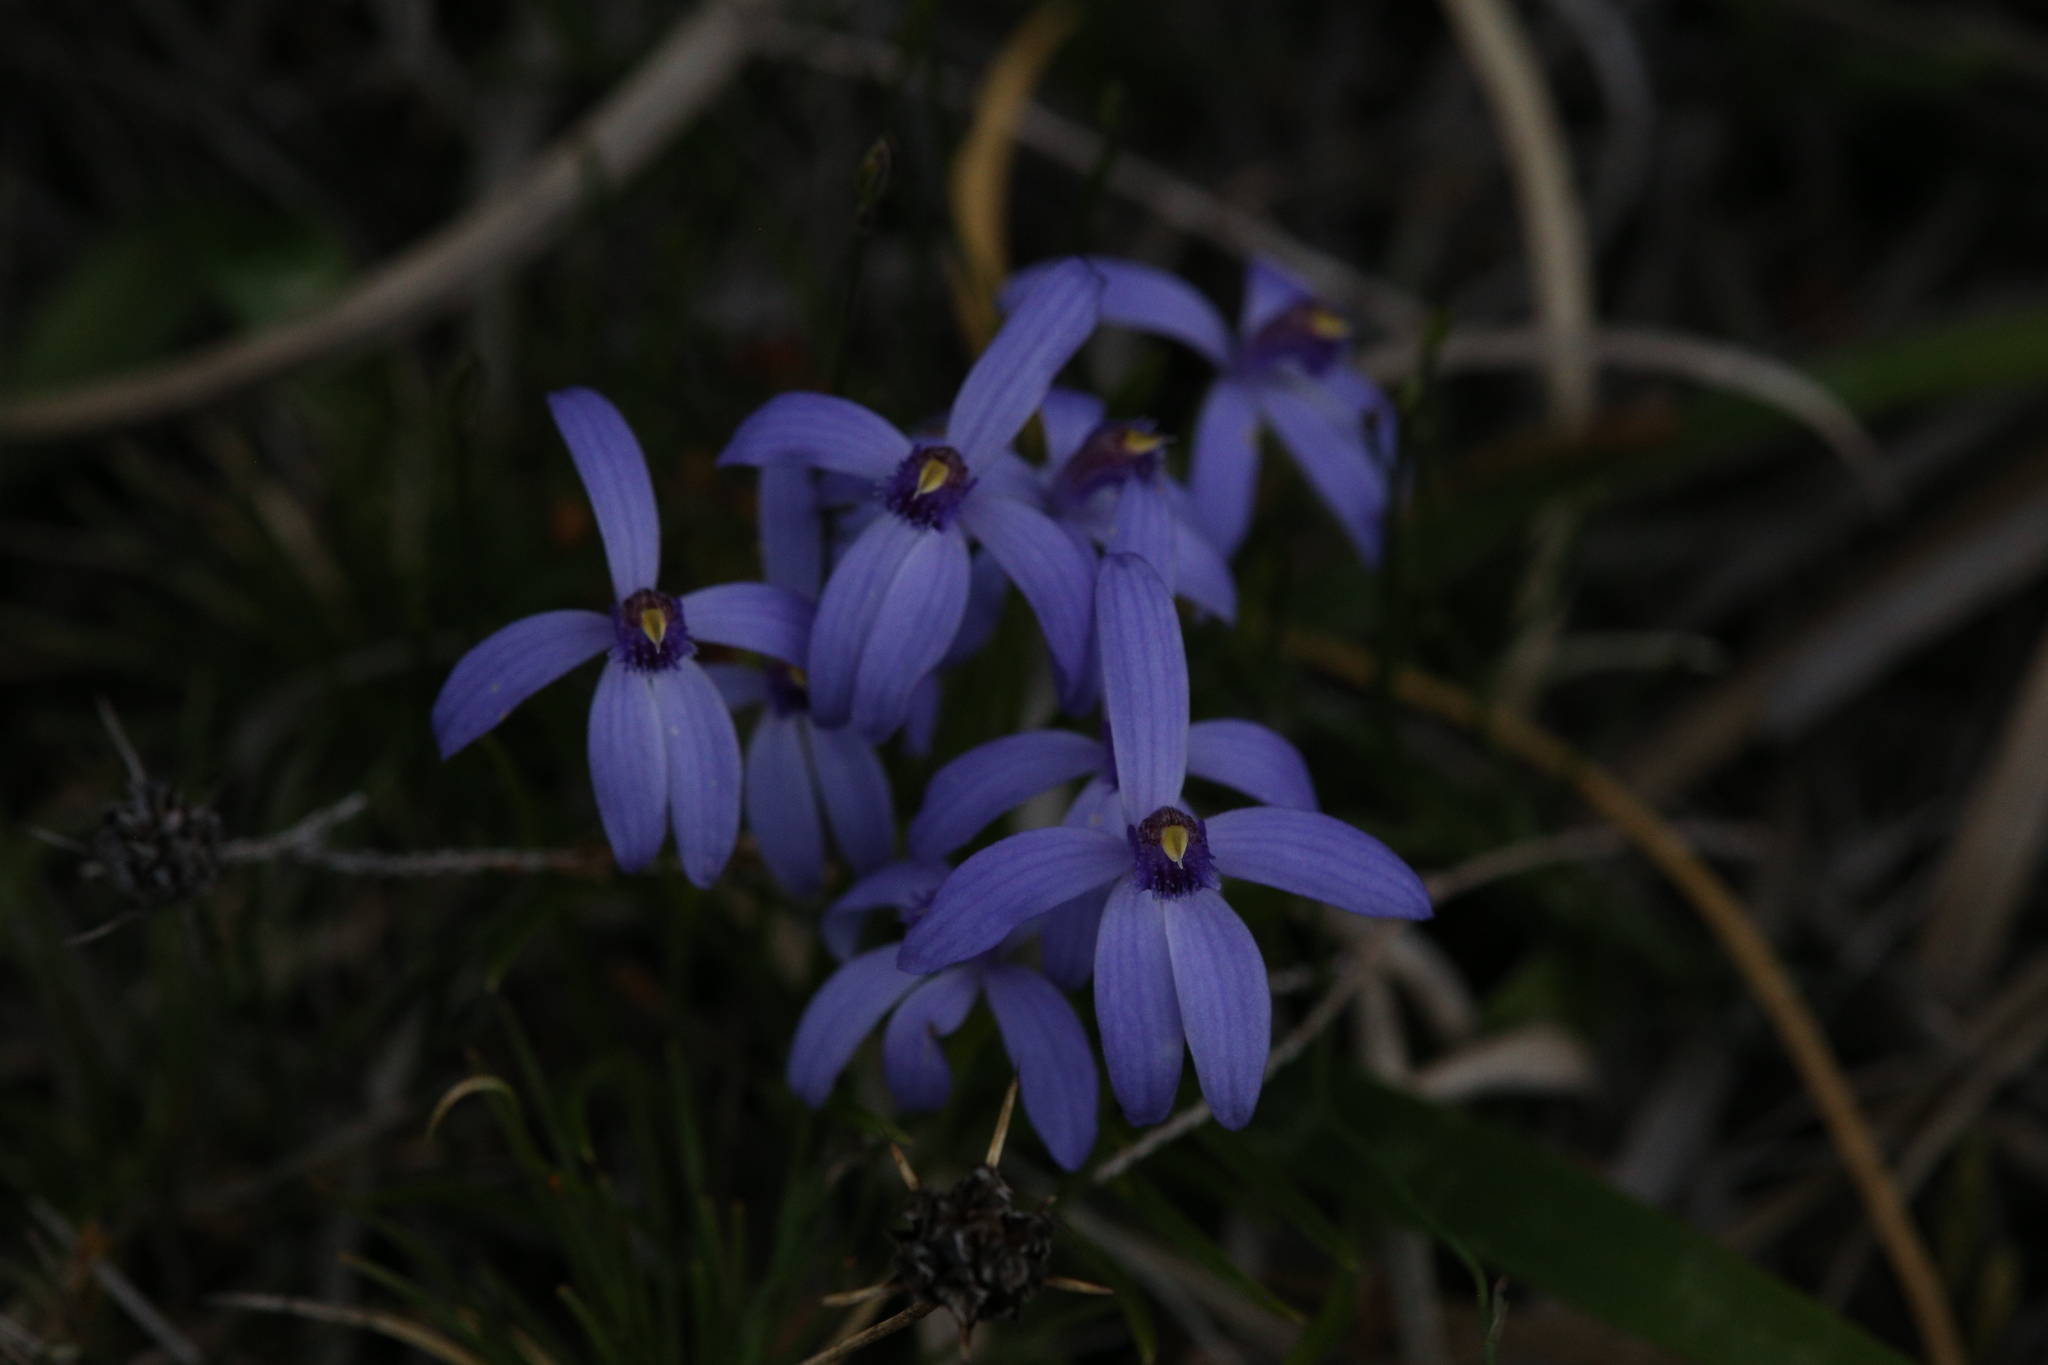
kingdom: Plantae
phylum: Tracheophyta
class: Liliopsida
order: Asparagales
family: Orchidaceae
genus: Pheladenia
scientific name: Pheladenia deformis
